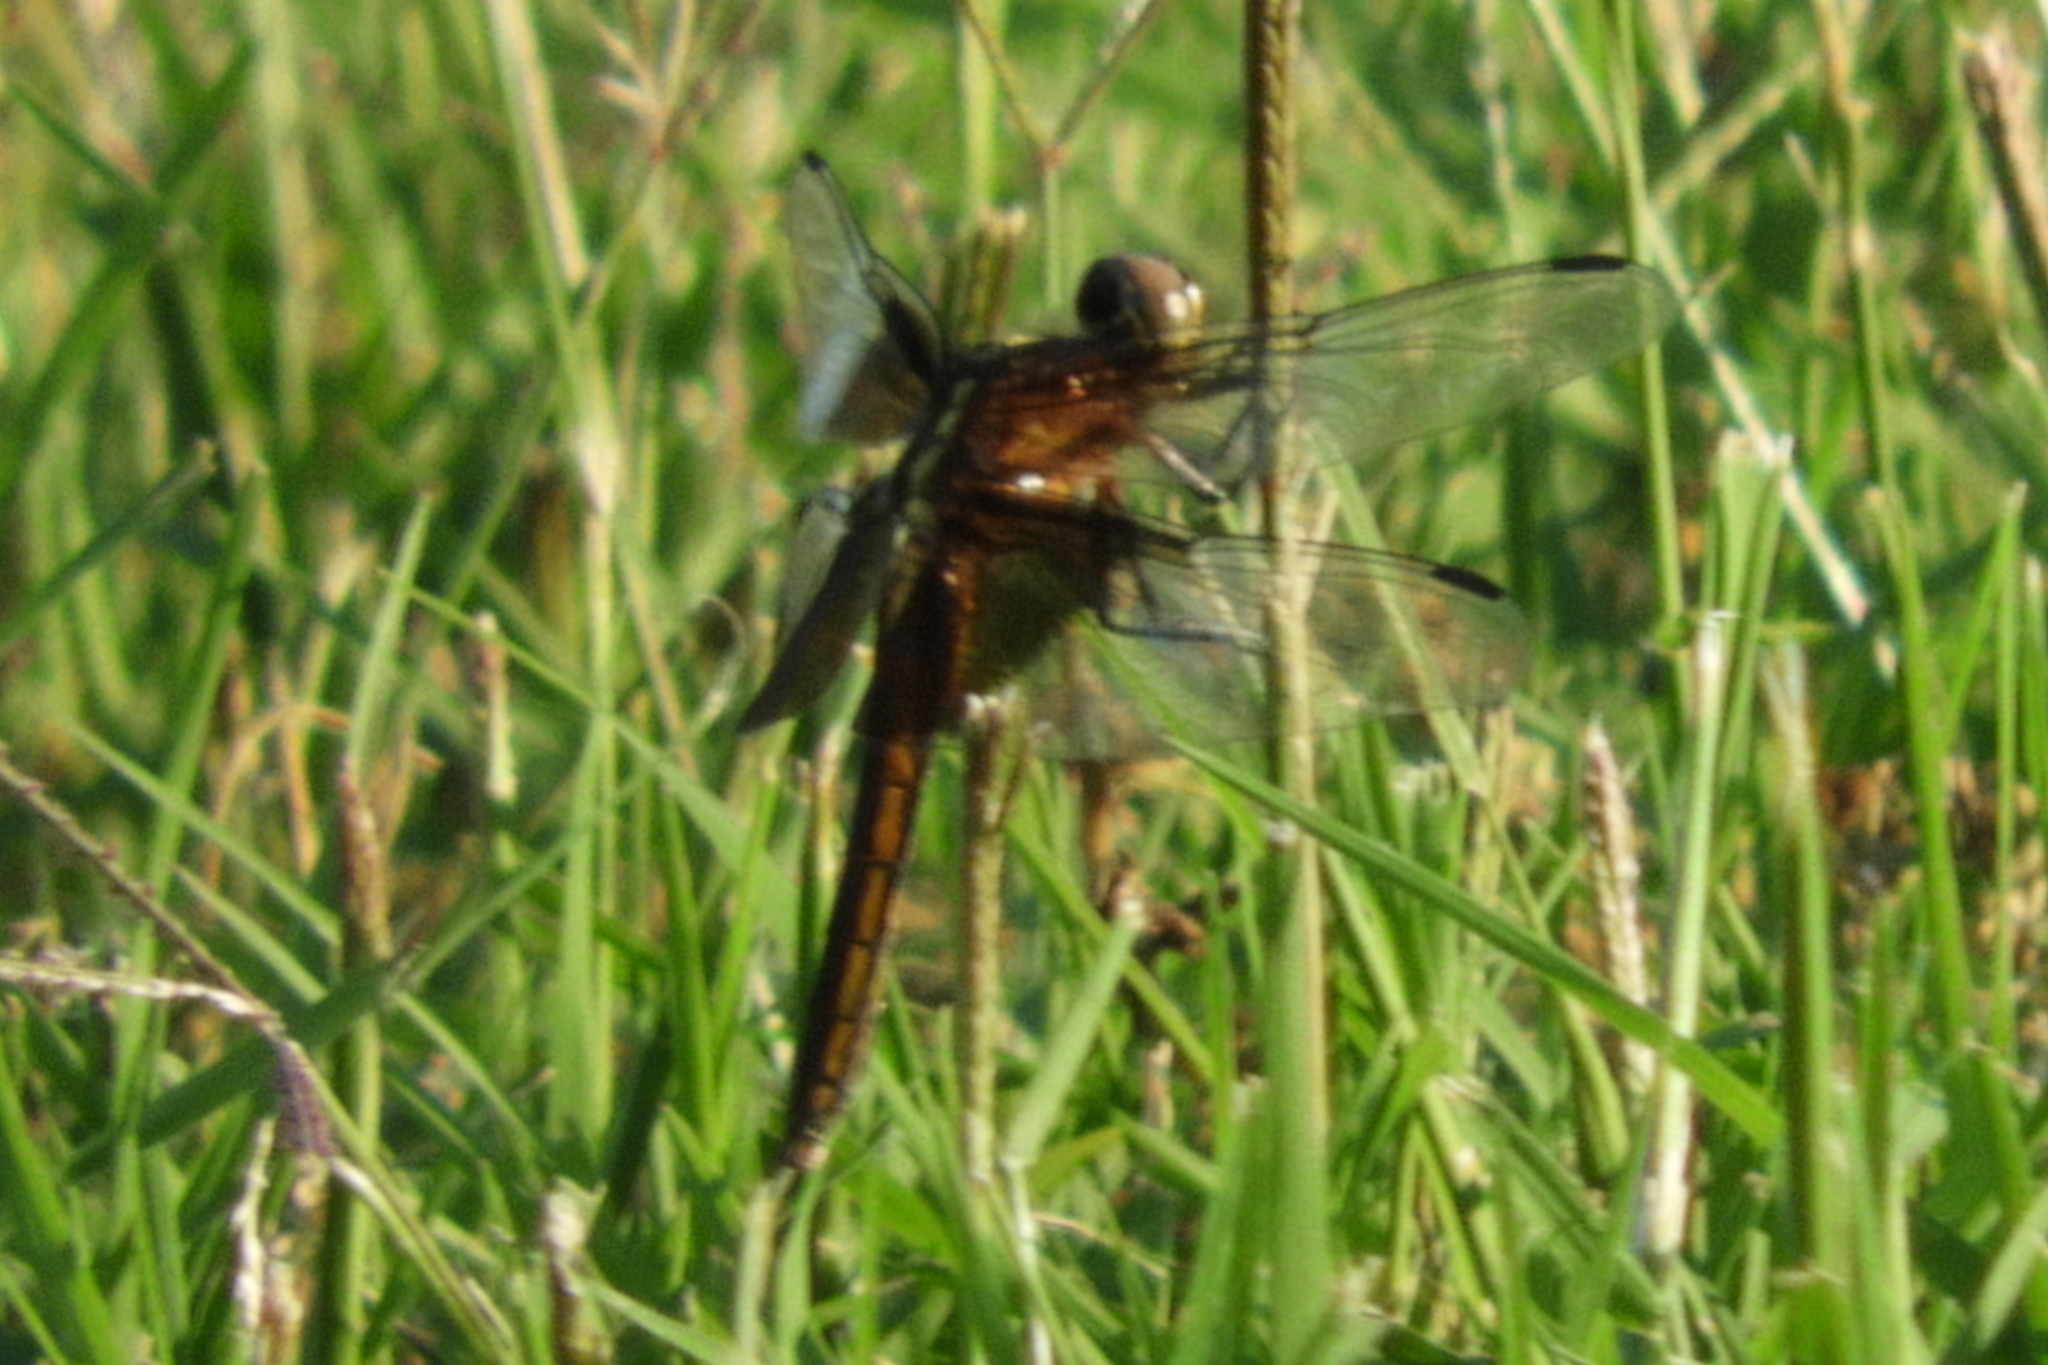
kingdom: Animalia
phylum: Arthropoda
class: Insecta
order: Odonata
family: Libellulidae
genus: Libellula
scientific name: Libellula luctuosa
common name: Widow skimmer
